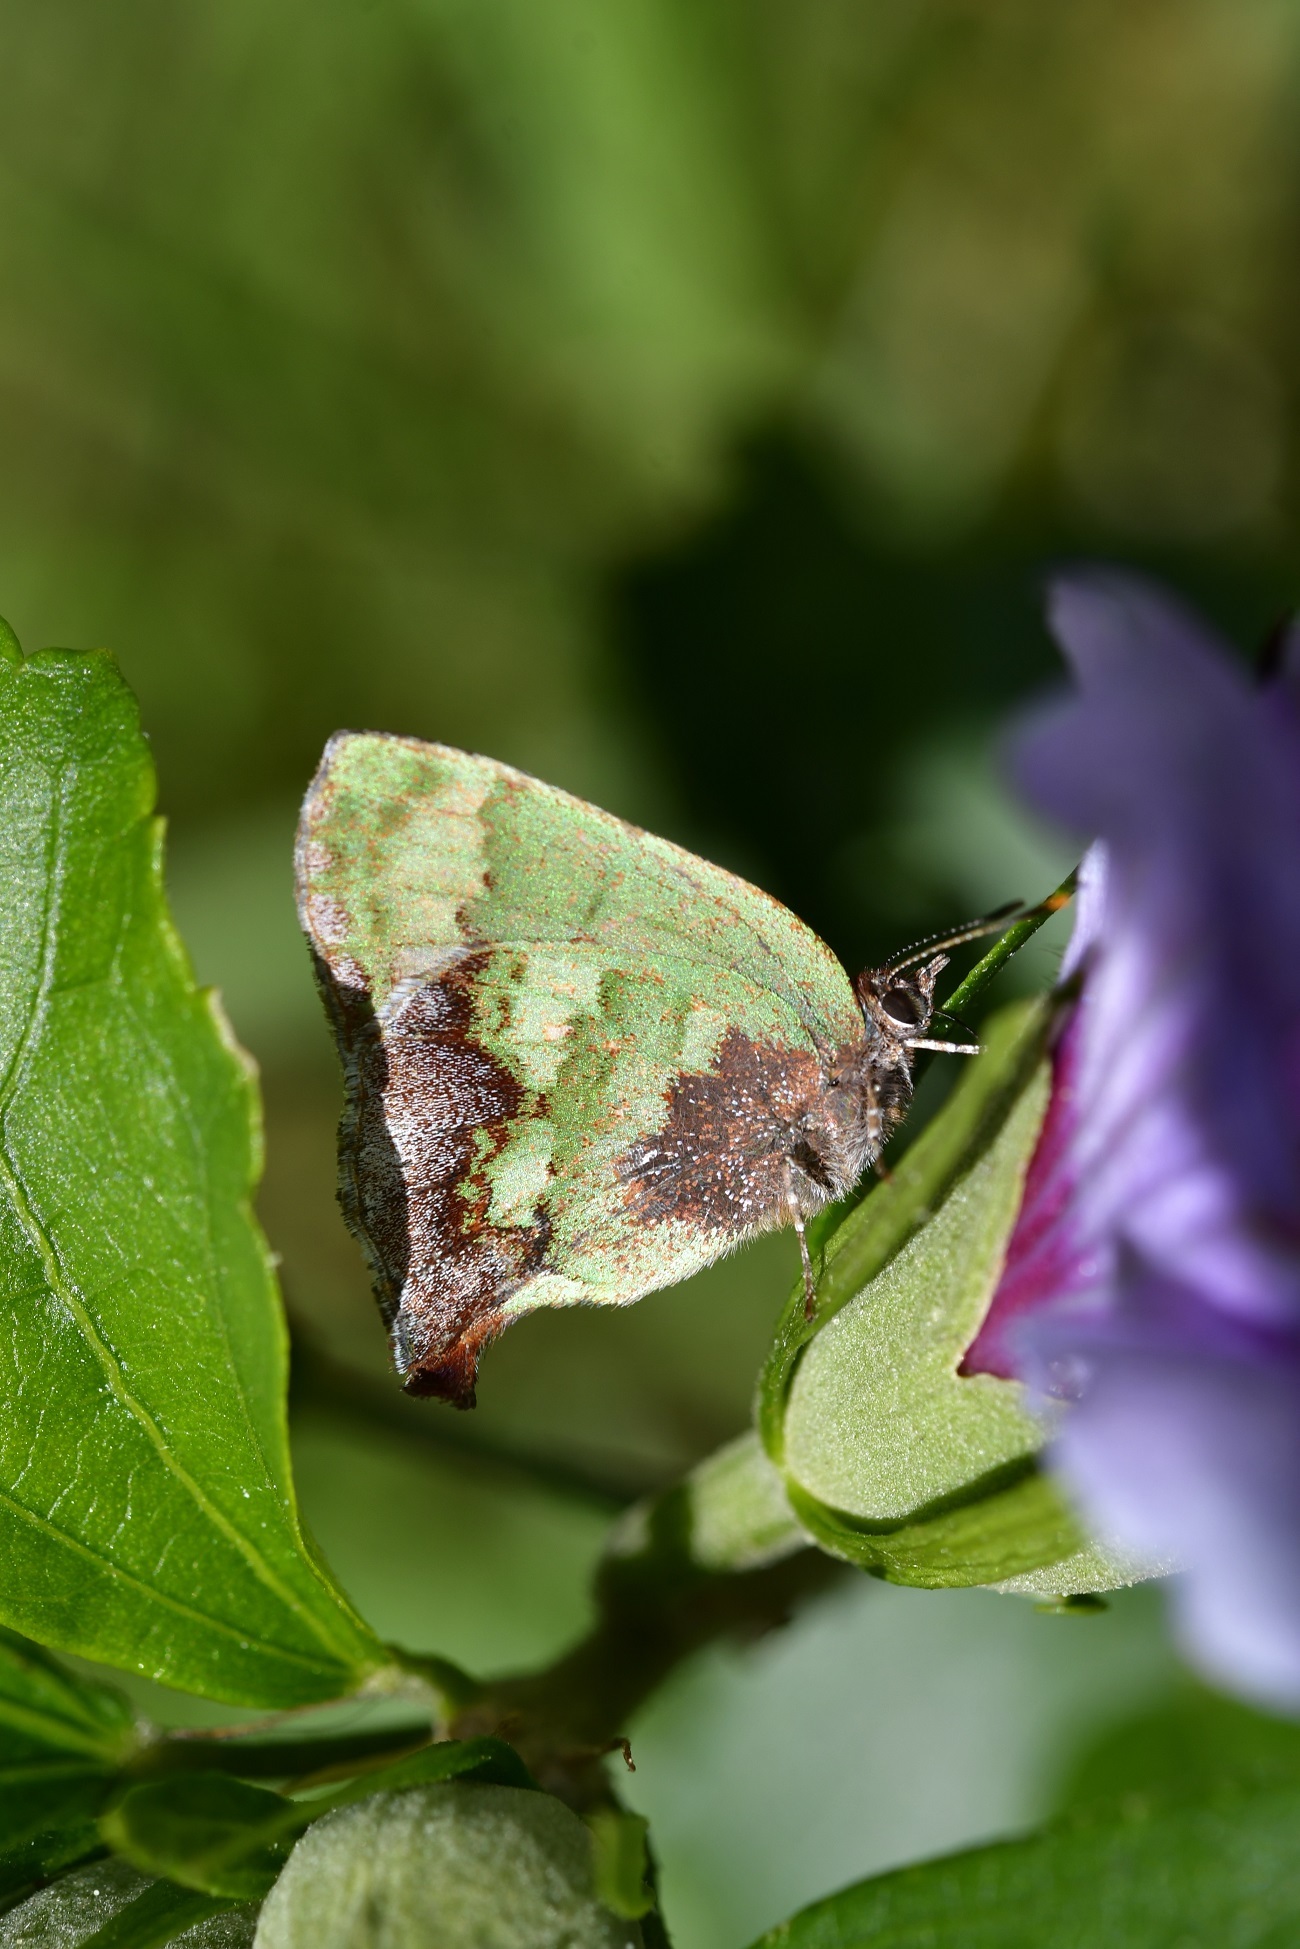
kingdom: Animalia
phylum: Arthropoda
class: Insecta
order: Lepidoptera
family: Lycaenidae
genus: Cyanophrys
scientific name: Cyanophrys agricolor
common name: Stained greenstreak
